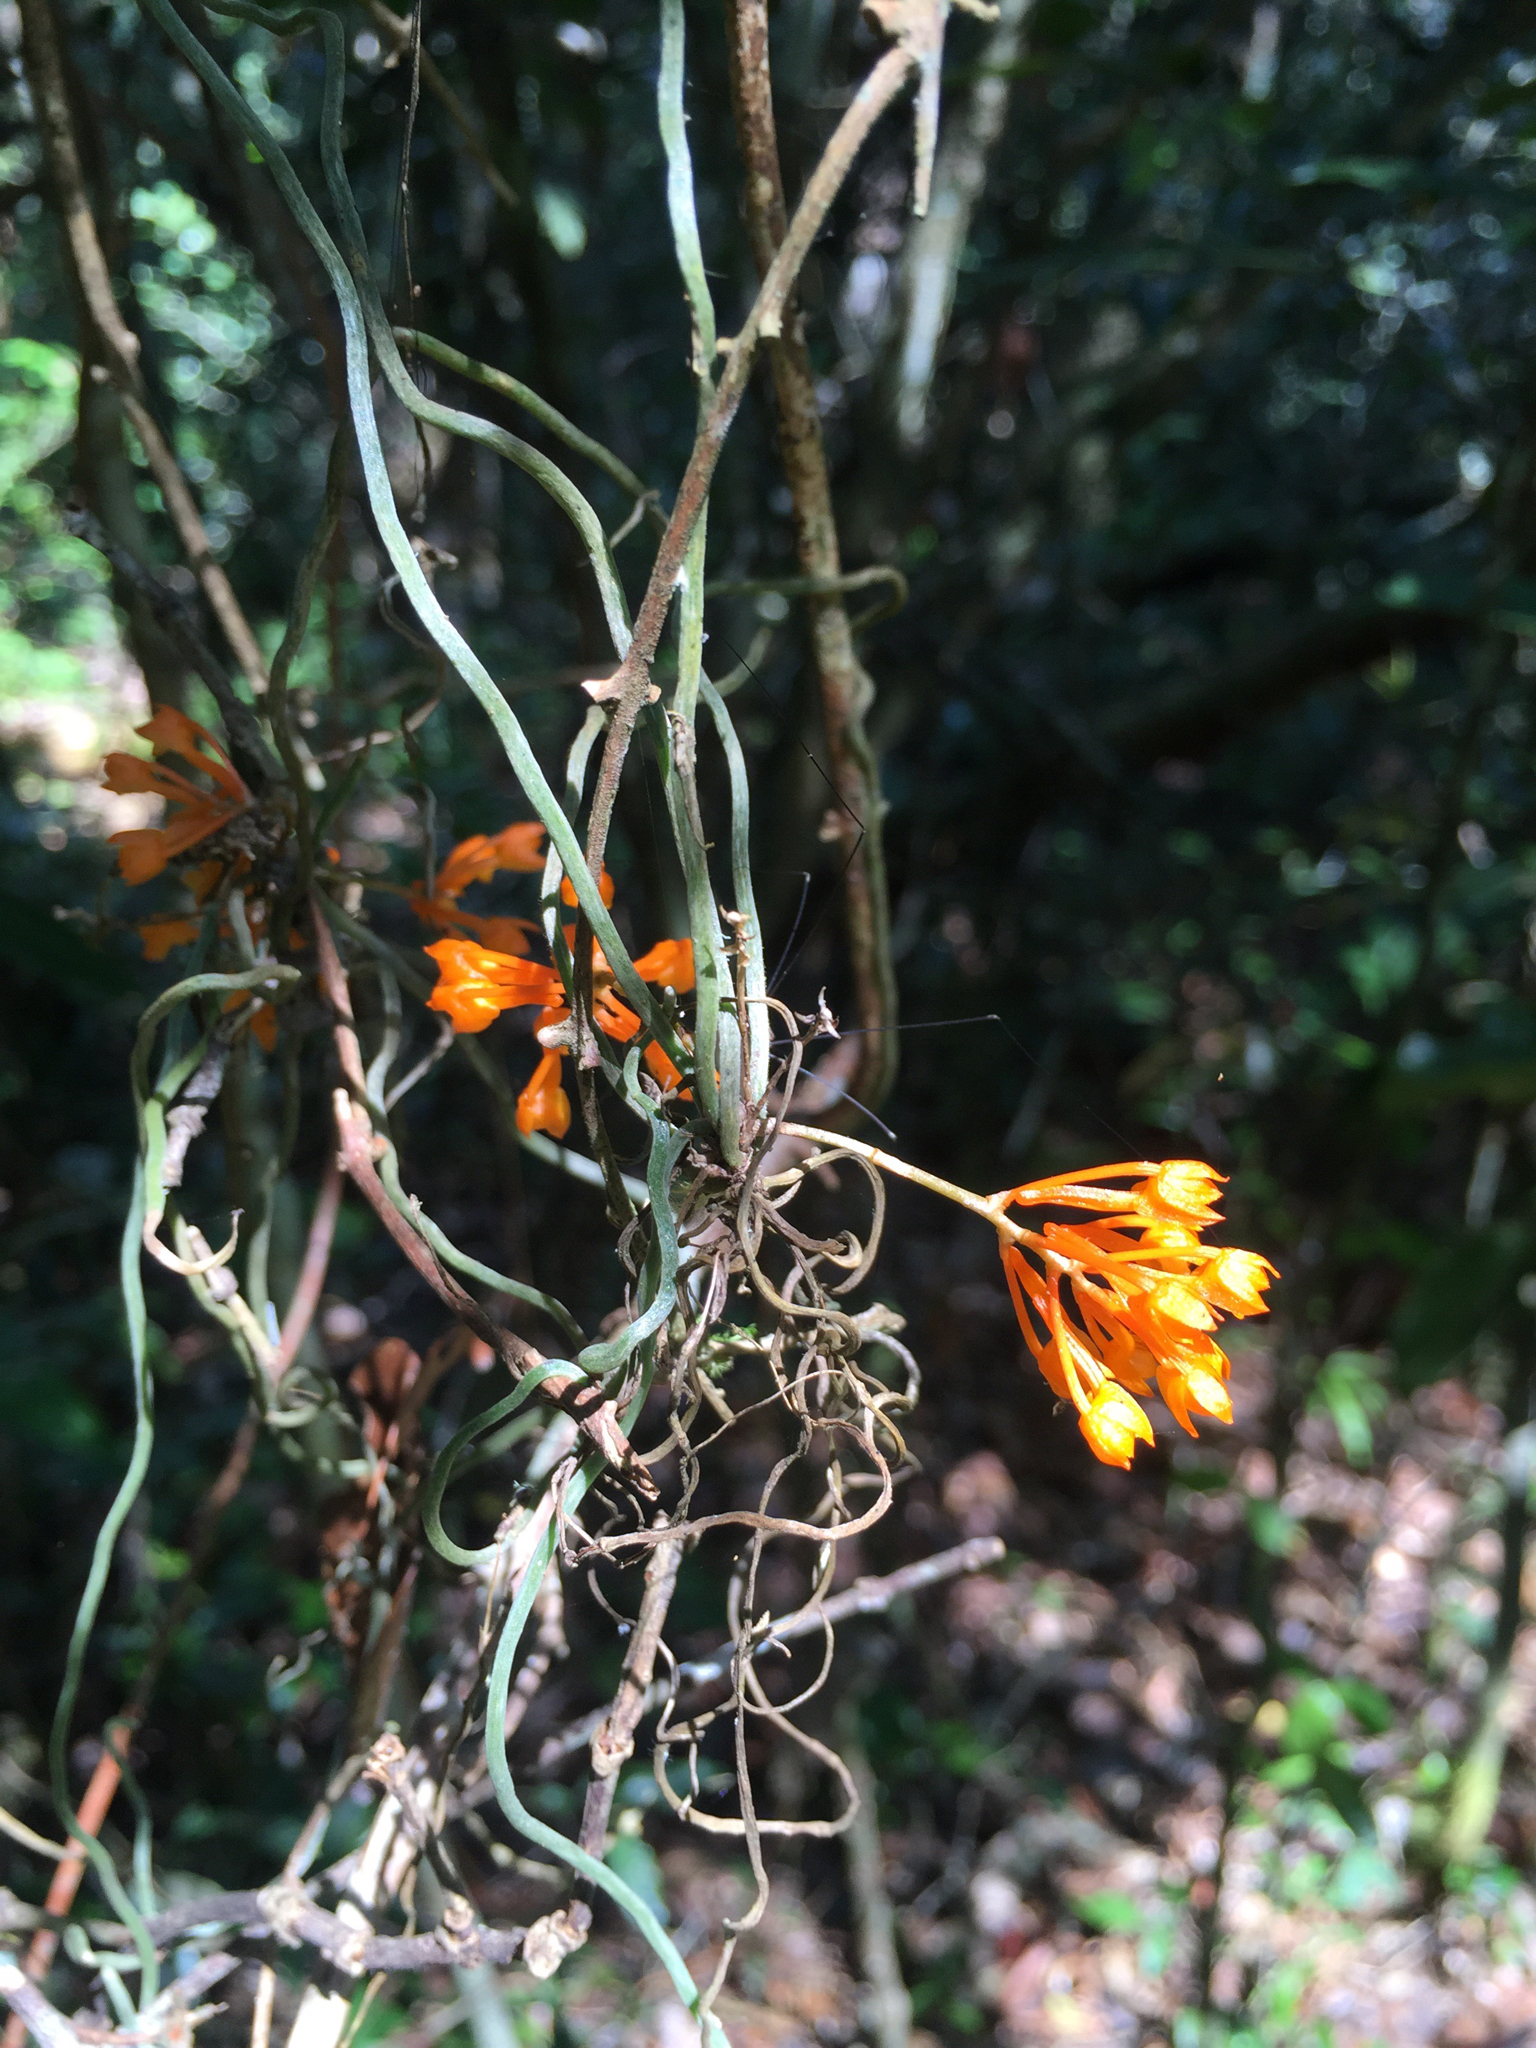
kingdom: Plantae
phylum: Tracheophyta
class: Liliopsida
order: Asparagales
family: Orchidaceae
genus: Microcoelia
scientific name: Microcoelia gilpiniae
